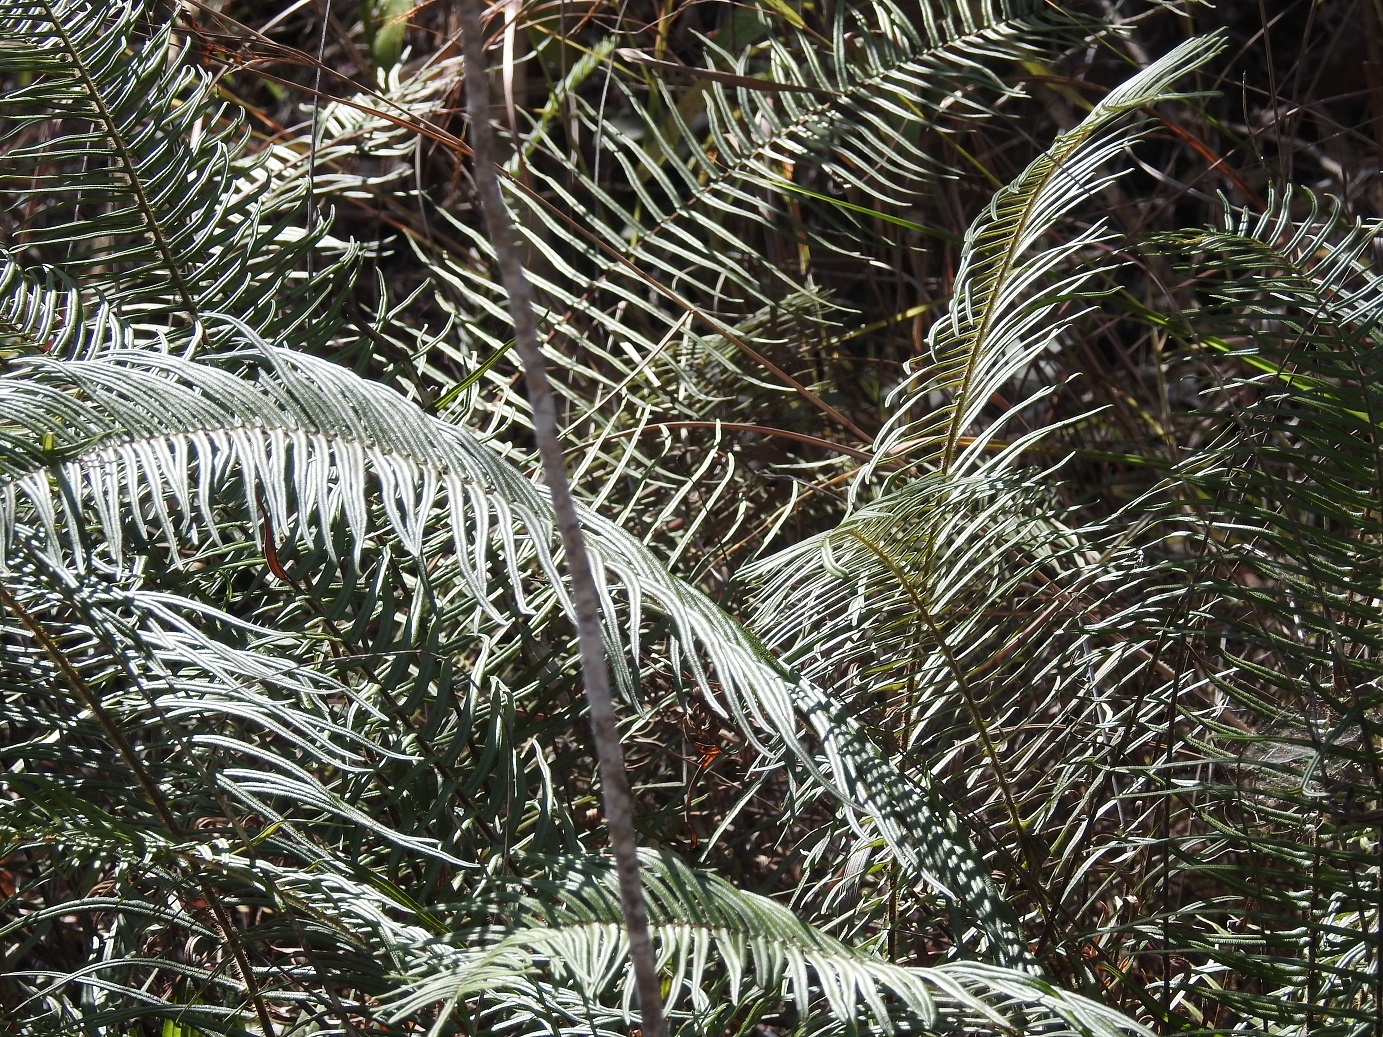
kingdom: Plantae
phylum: Tracheophyta
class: Polypodiopsida
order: Polypodiales
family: Pteridaceae
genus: Pteris
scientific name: Pteris longifolia
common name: Longleaf brake
